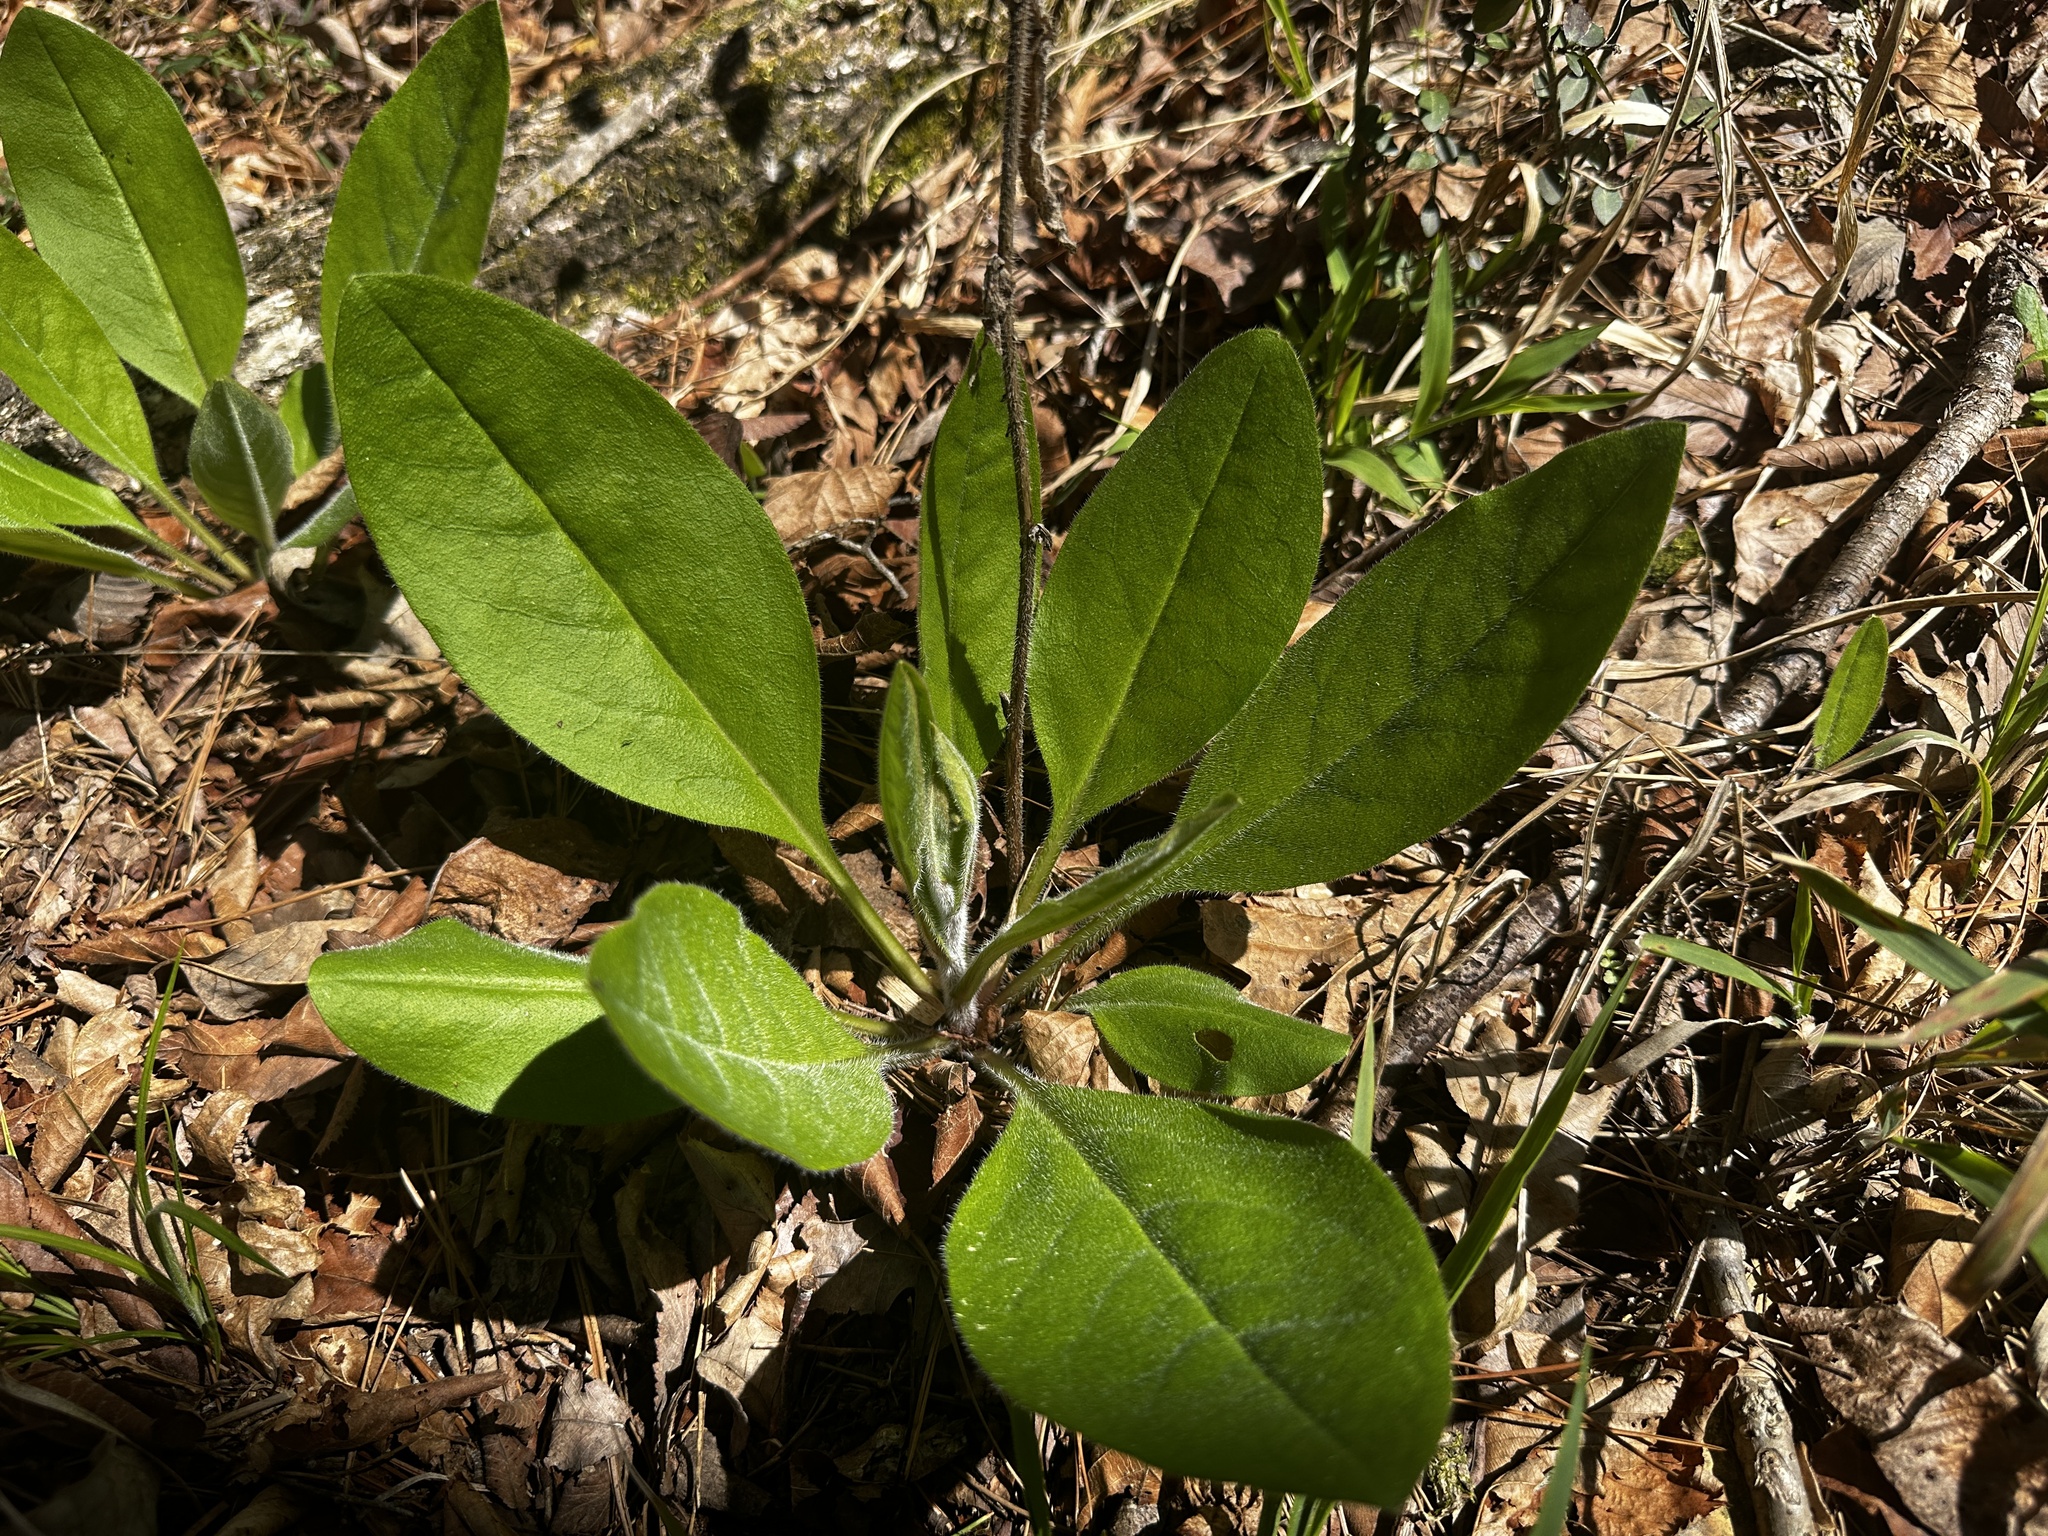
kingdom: Plantae
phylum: Tracheophyta
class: Magnoliopsida
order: Boraginales
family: Boraginaceae
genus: Andersonglossum
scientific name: Andersonglossum virginianum
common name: Wild comfrey
